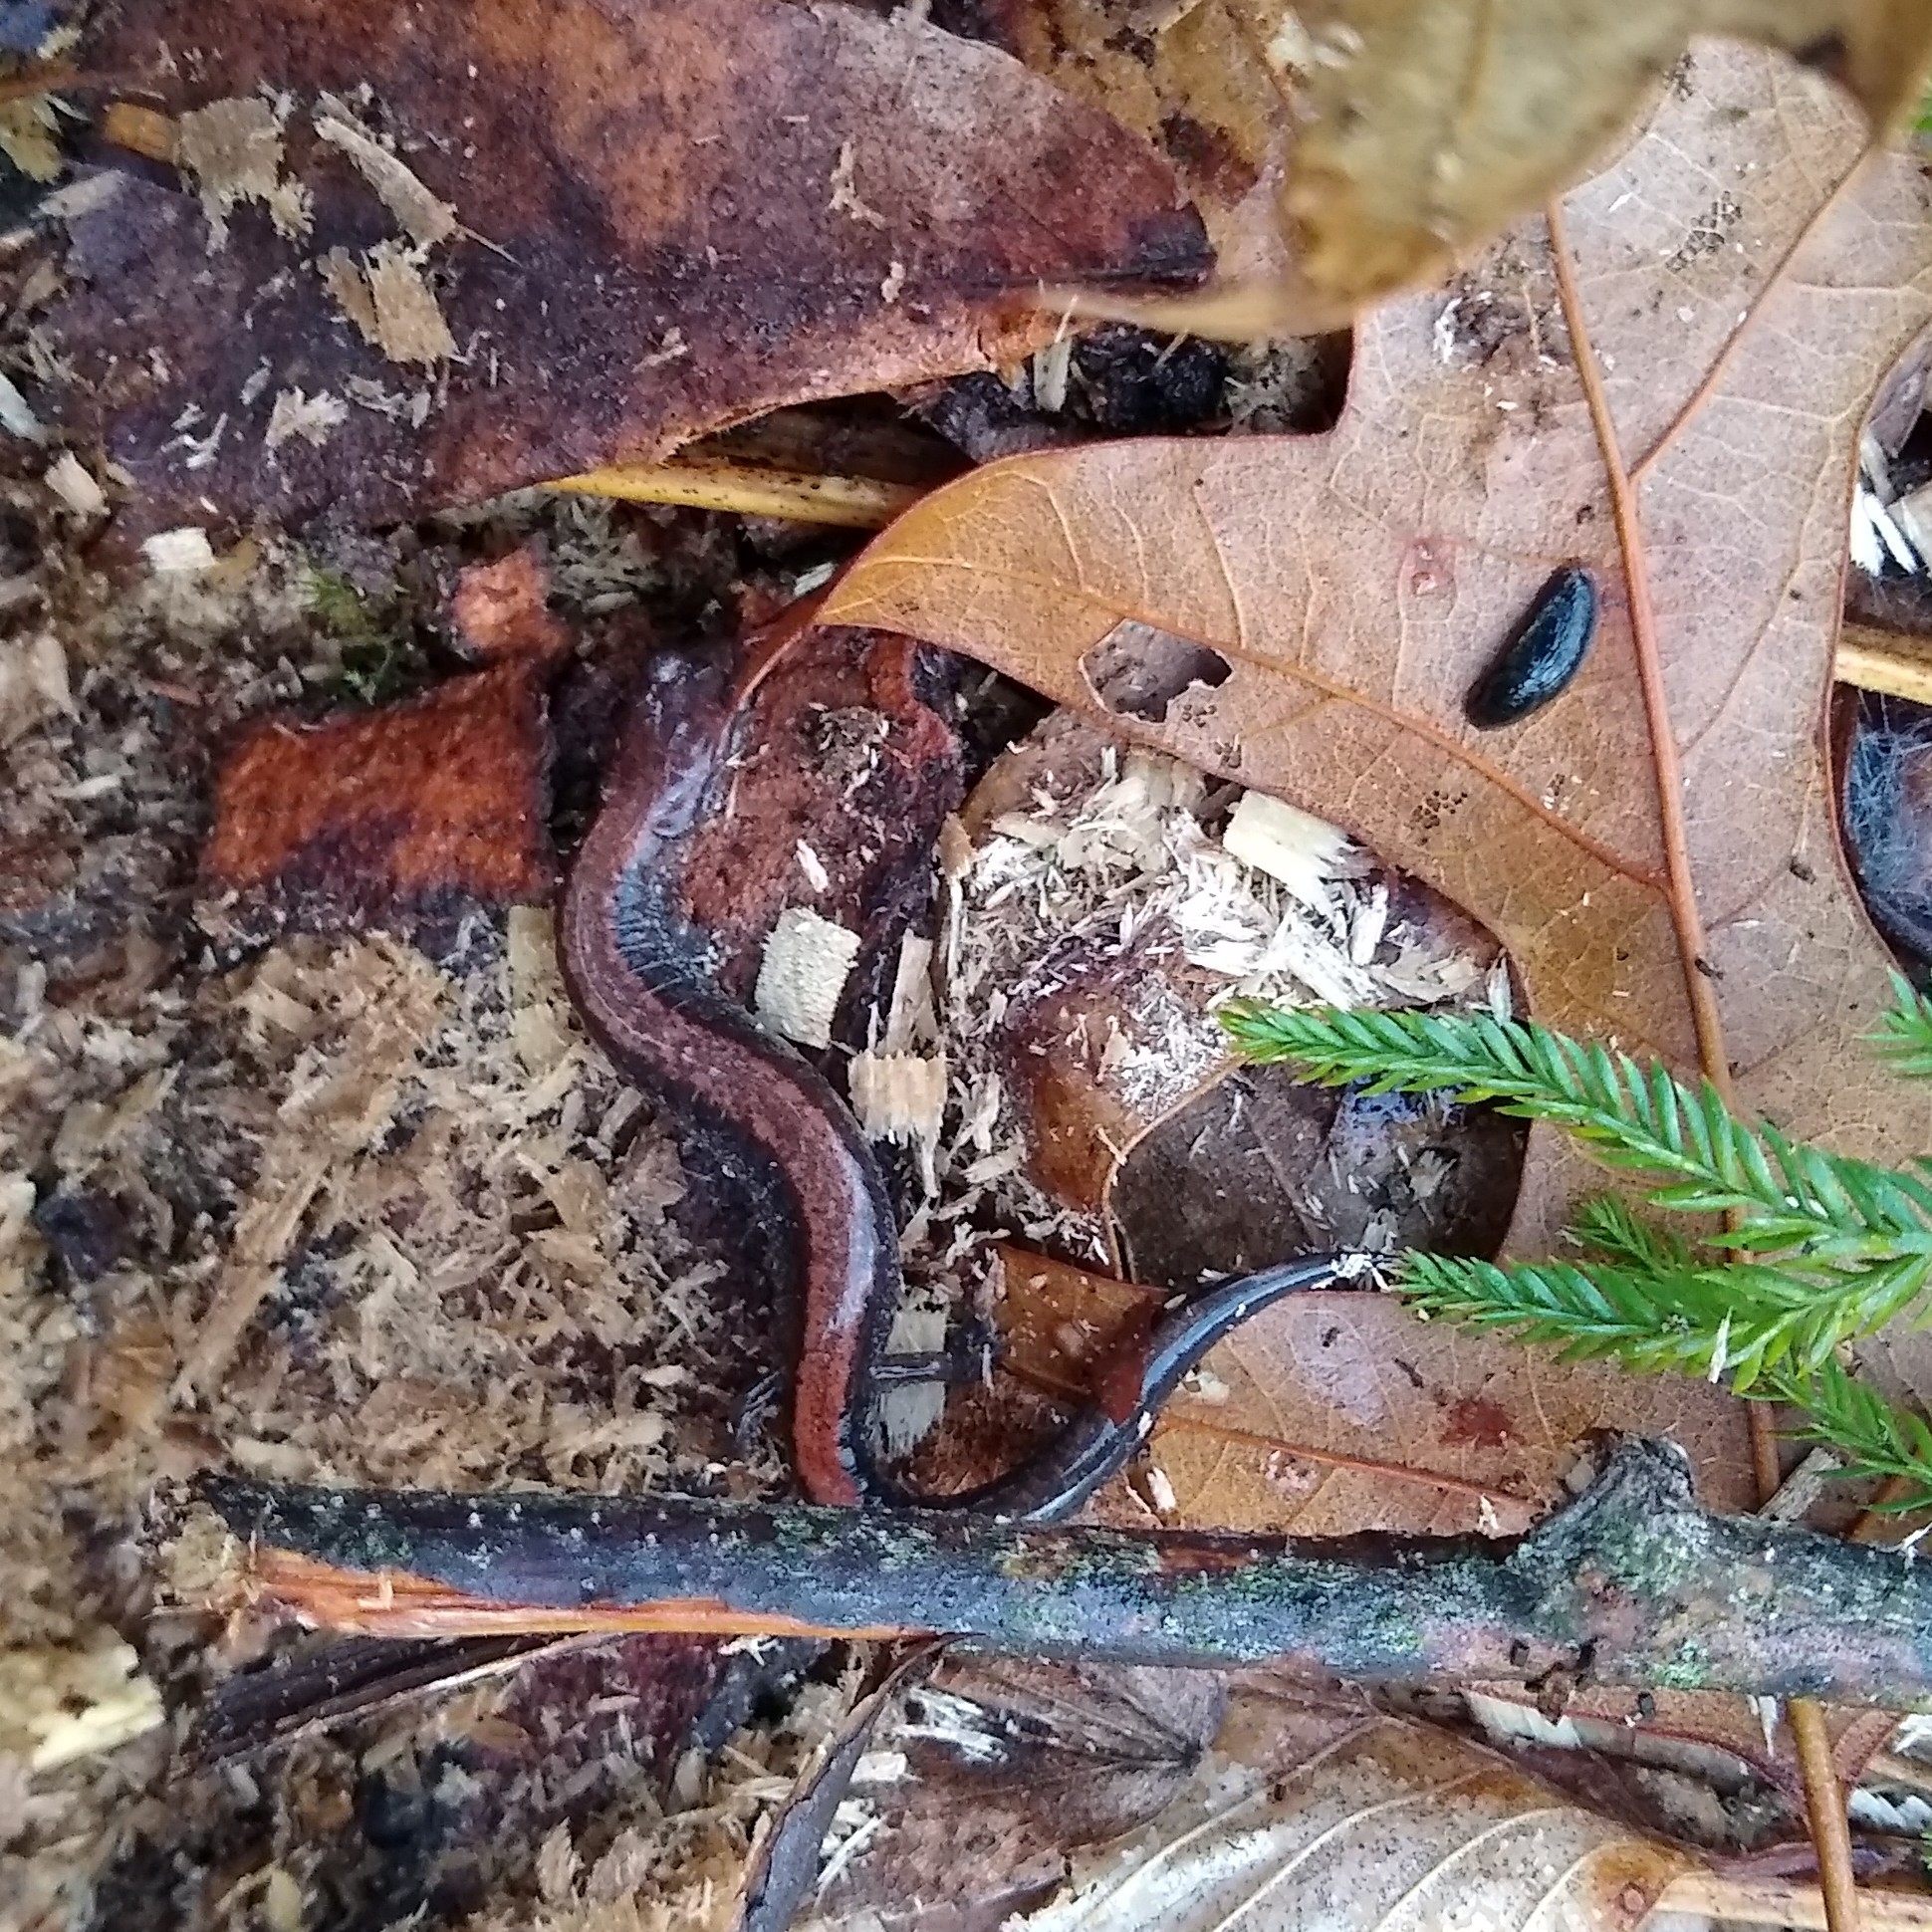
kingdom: Animalia
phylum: Chordata
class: Amphibia
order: Caudata
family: Plethodontidae
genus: Plethodon
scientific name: Plethodon cinereus
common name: Redback salamander
